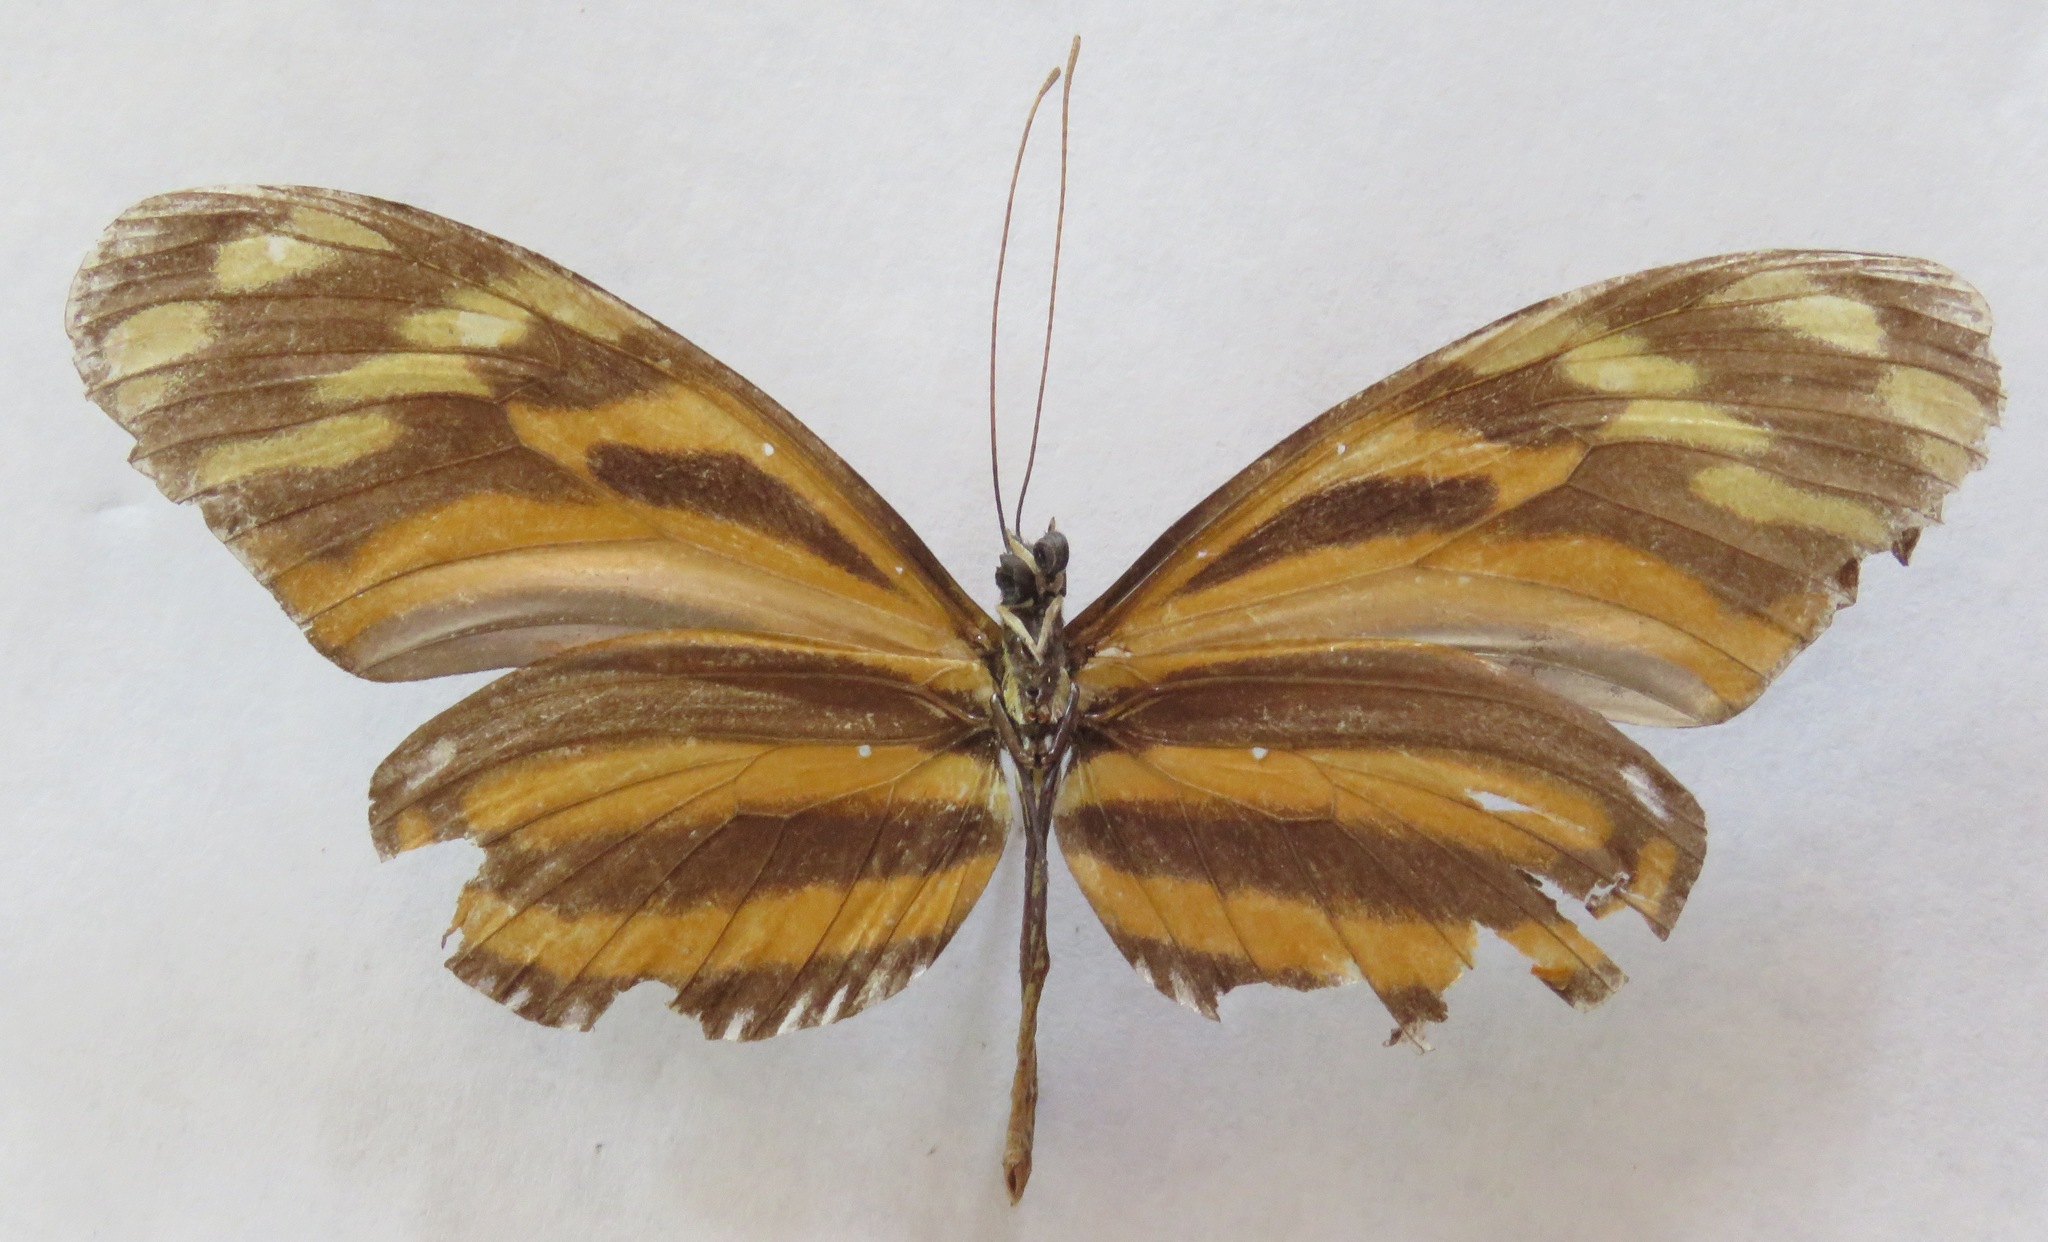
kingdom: Animalia
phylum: Arthropoda
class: Insecta
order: Lepidoptera
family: Nymphalidae
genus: Heliconius
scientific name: Heliconius ismenius
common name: Ismenius tiger
